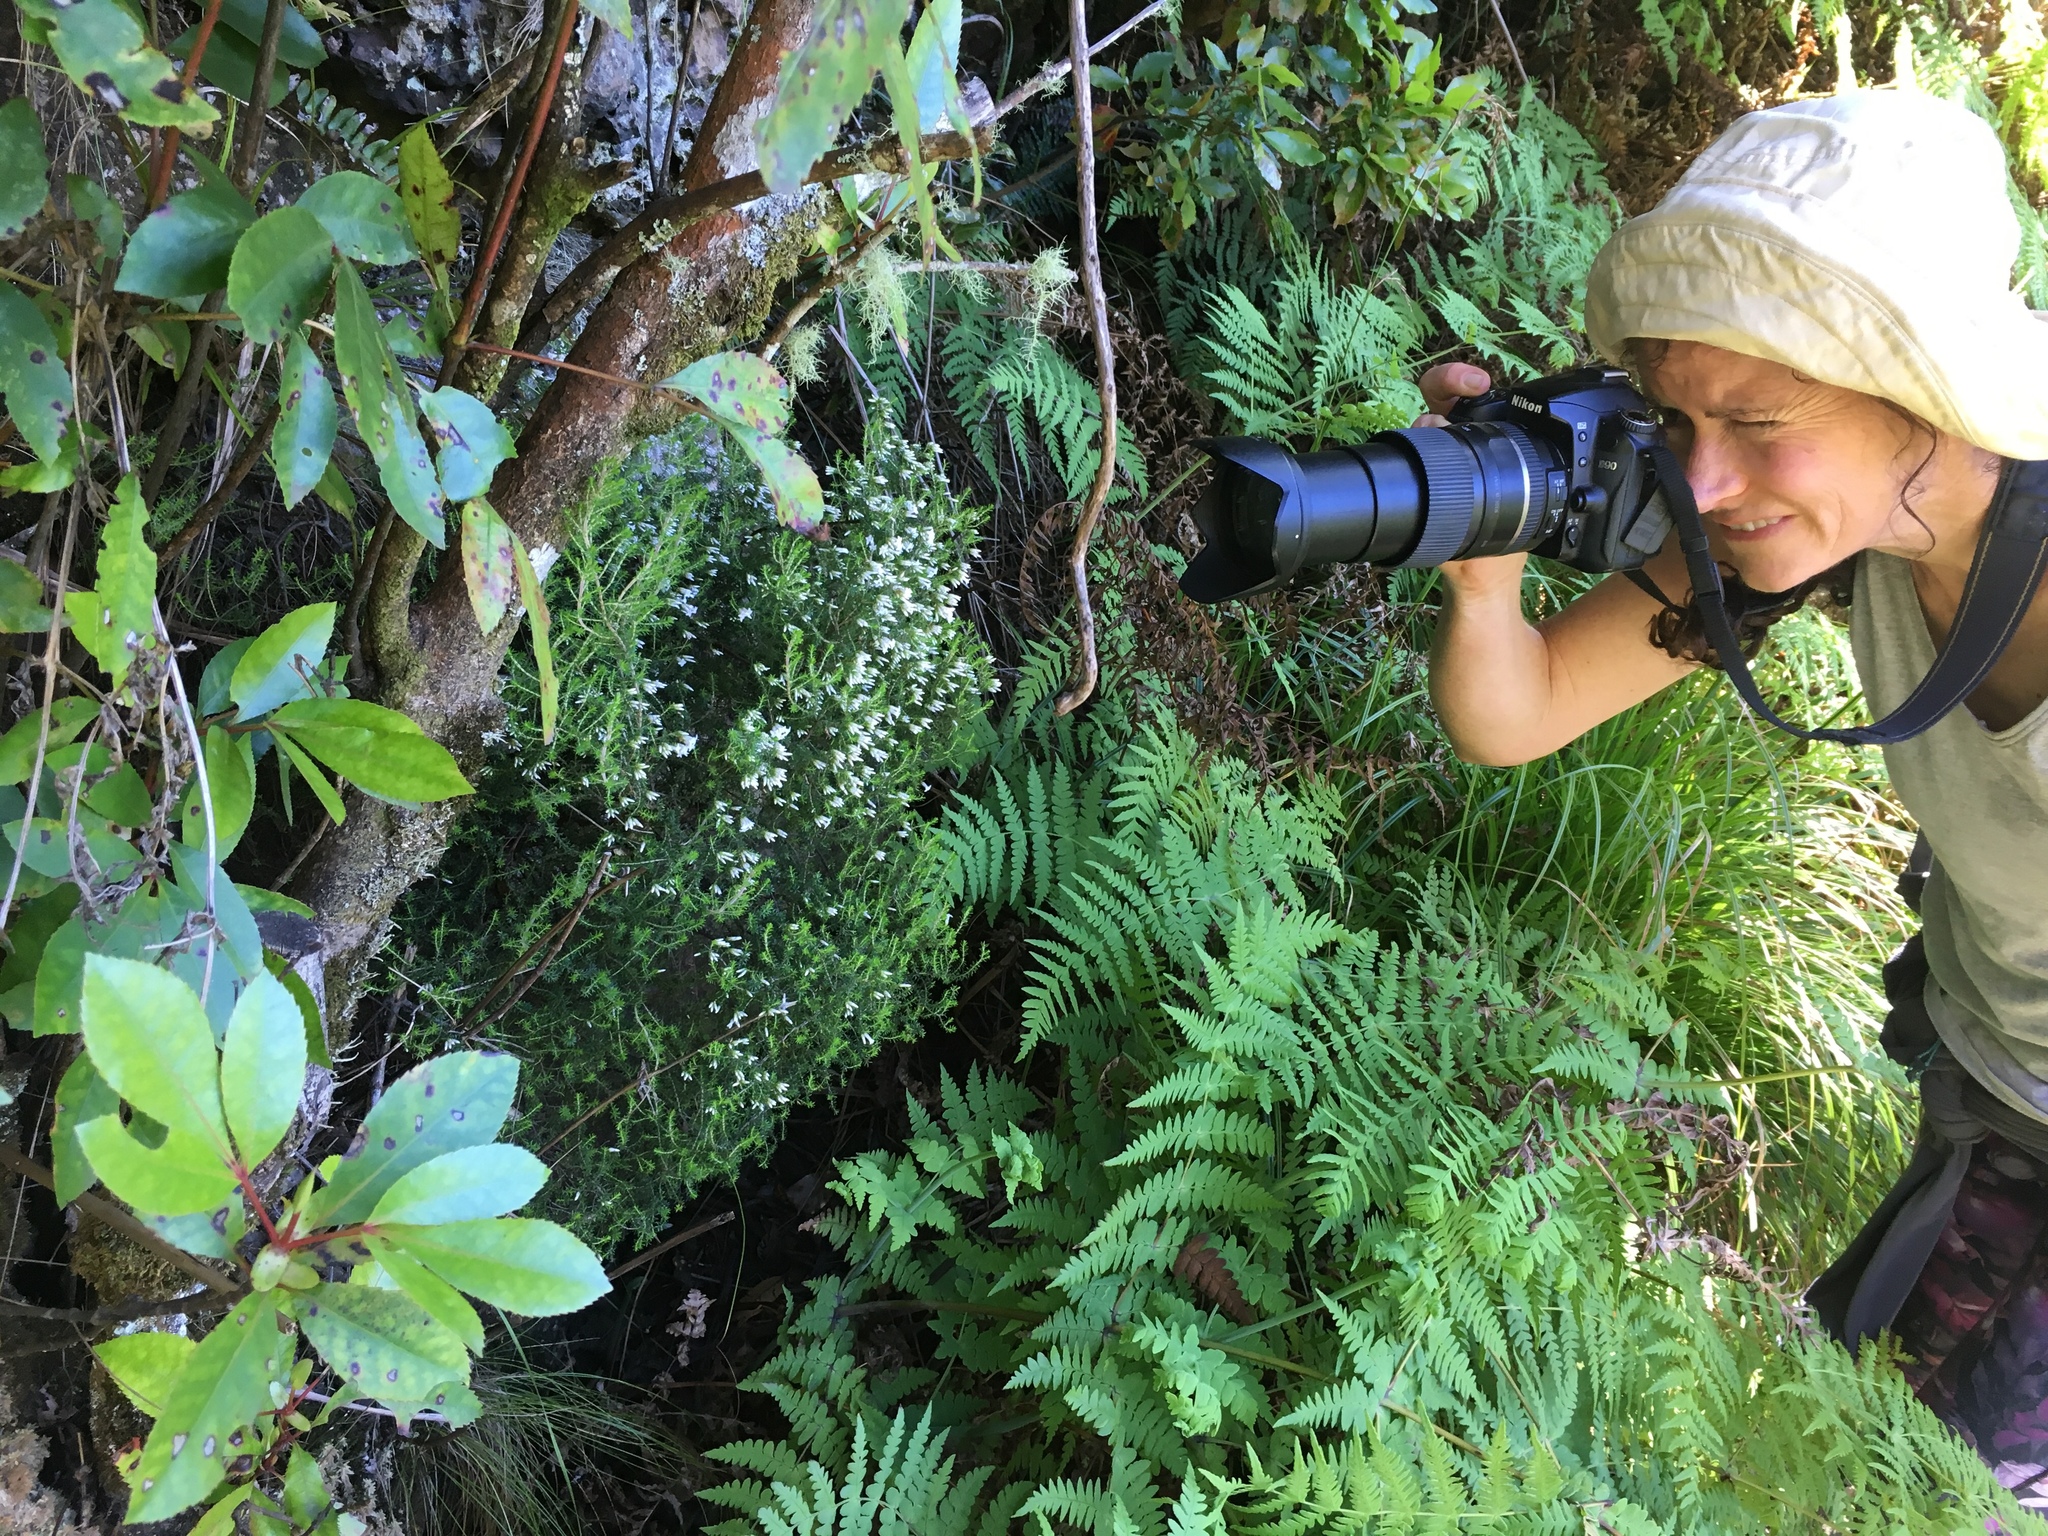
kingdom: Plantae
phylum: Tracheophyta
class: Magnoliopsida
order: Ericales
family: Ericaceae
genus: Erica
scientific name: Erica
